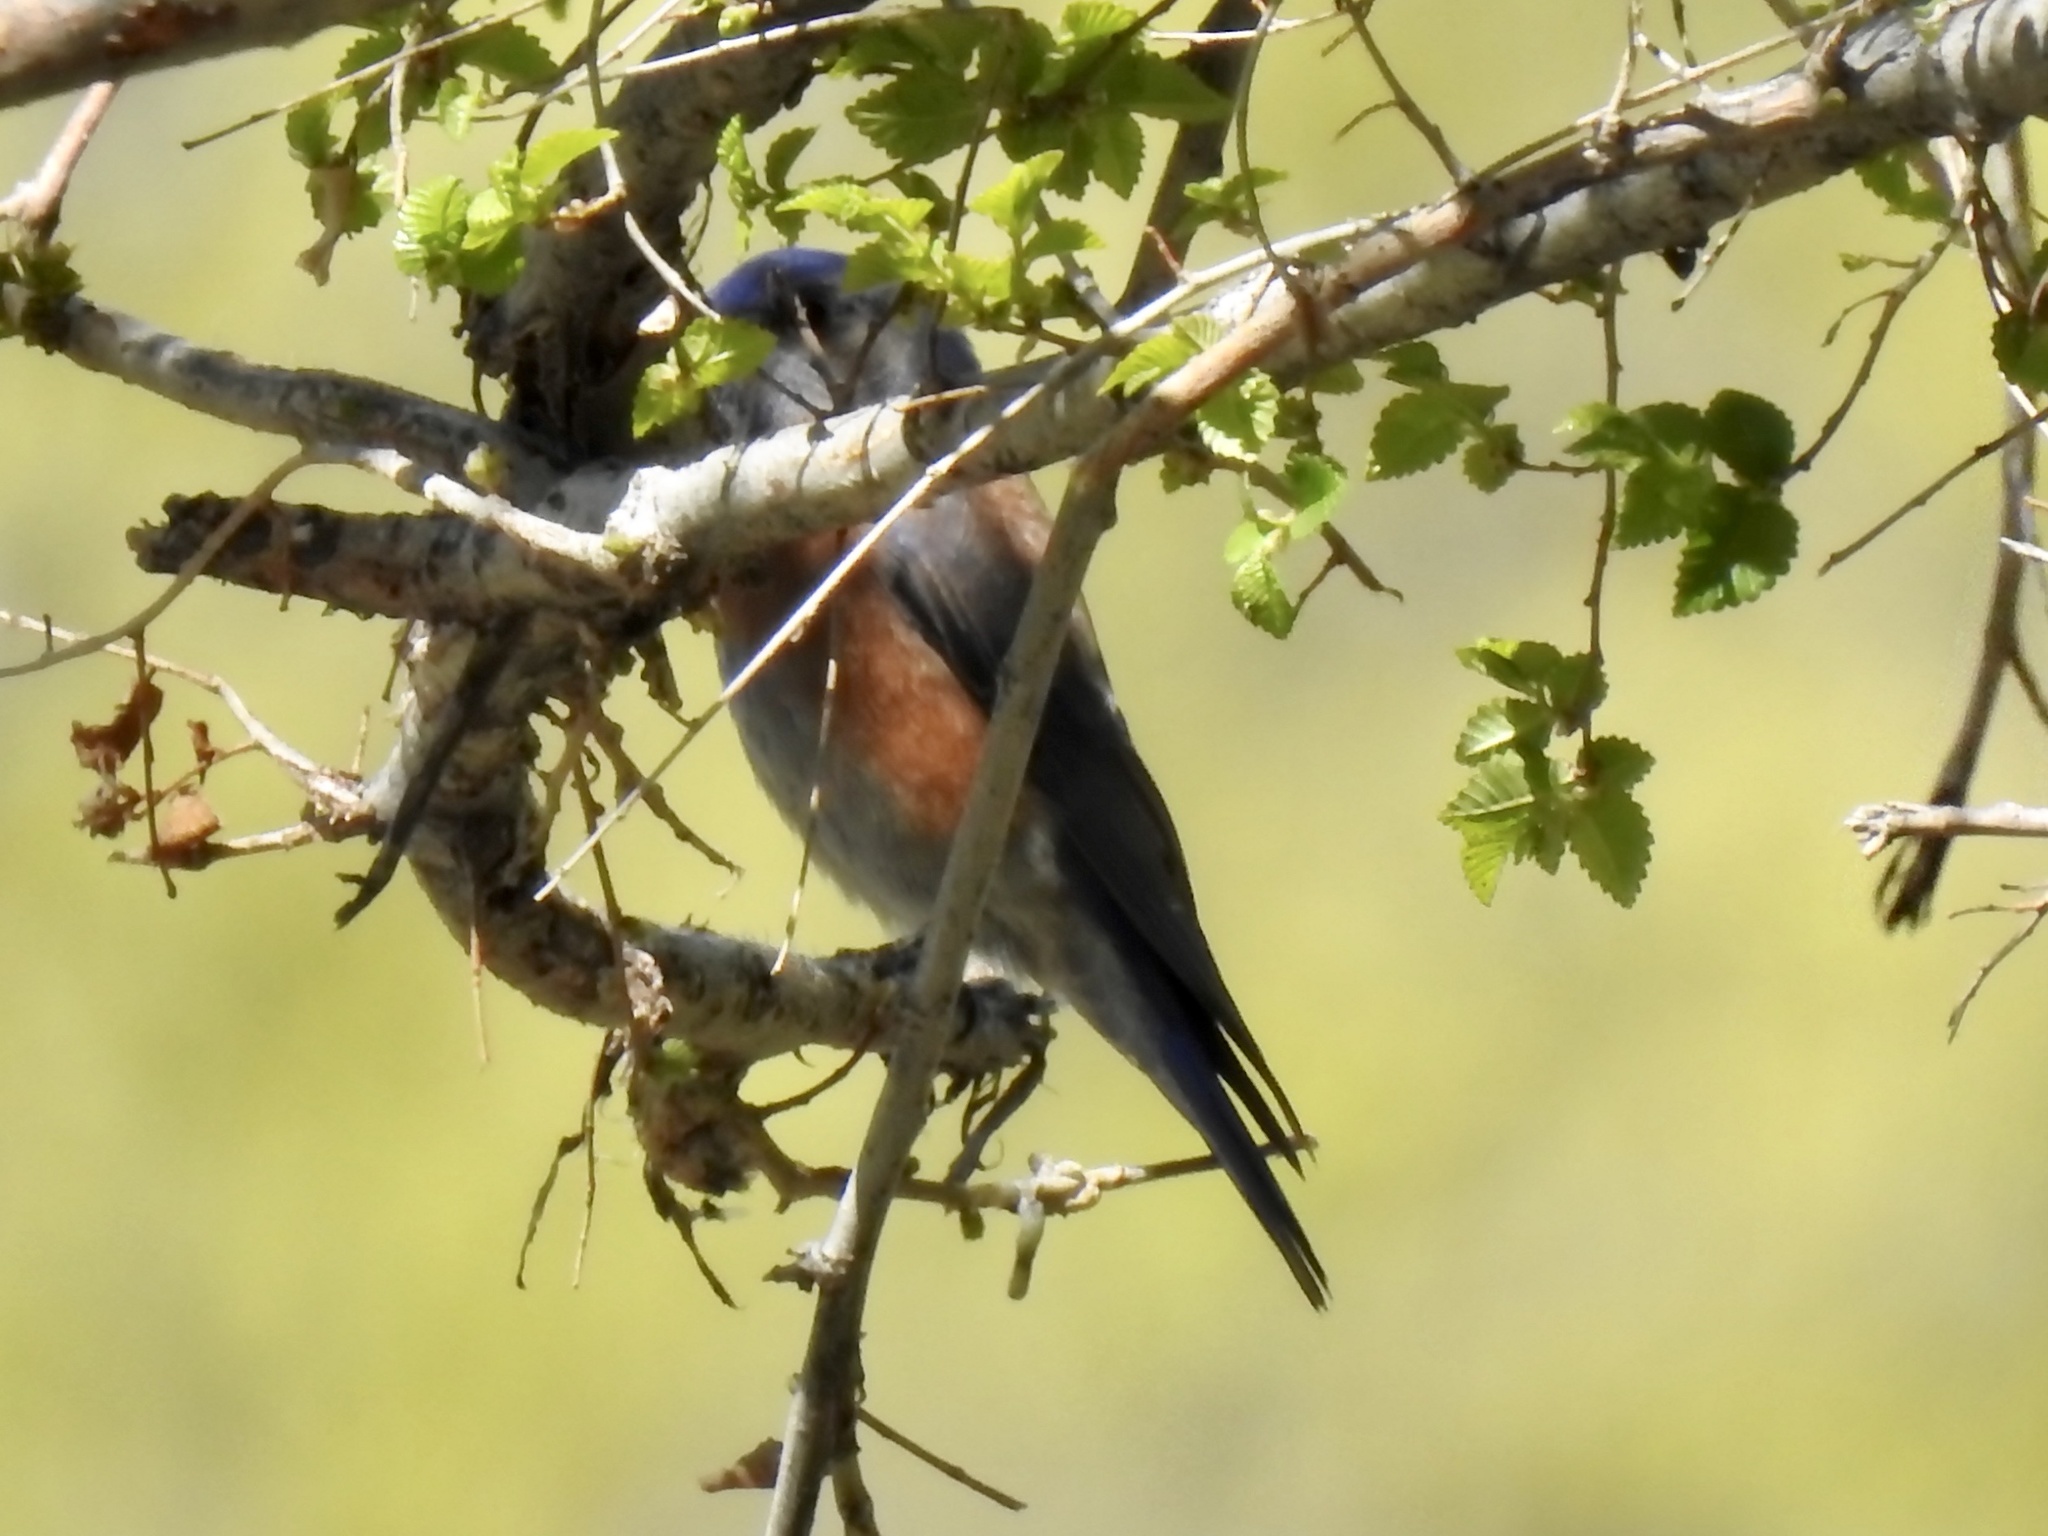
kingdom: Animalia
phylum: Chordata
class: Aves
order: Passeriformes
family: Turdidae
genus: Sialia
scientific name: Sialia sialis
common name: Eastern bluebird
